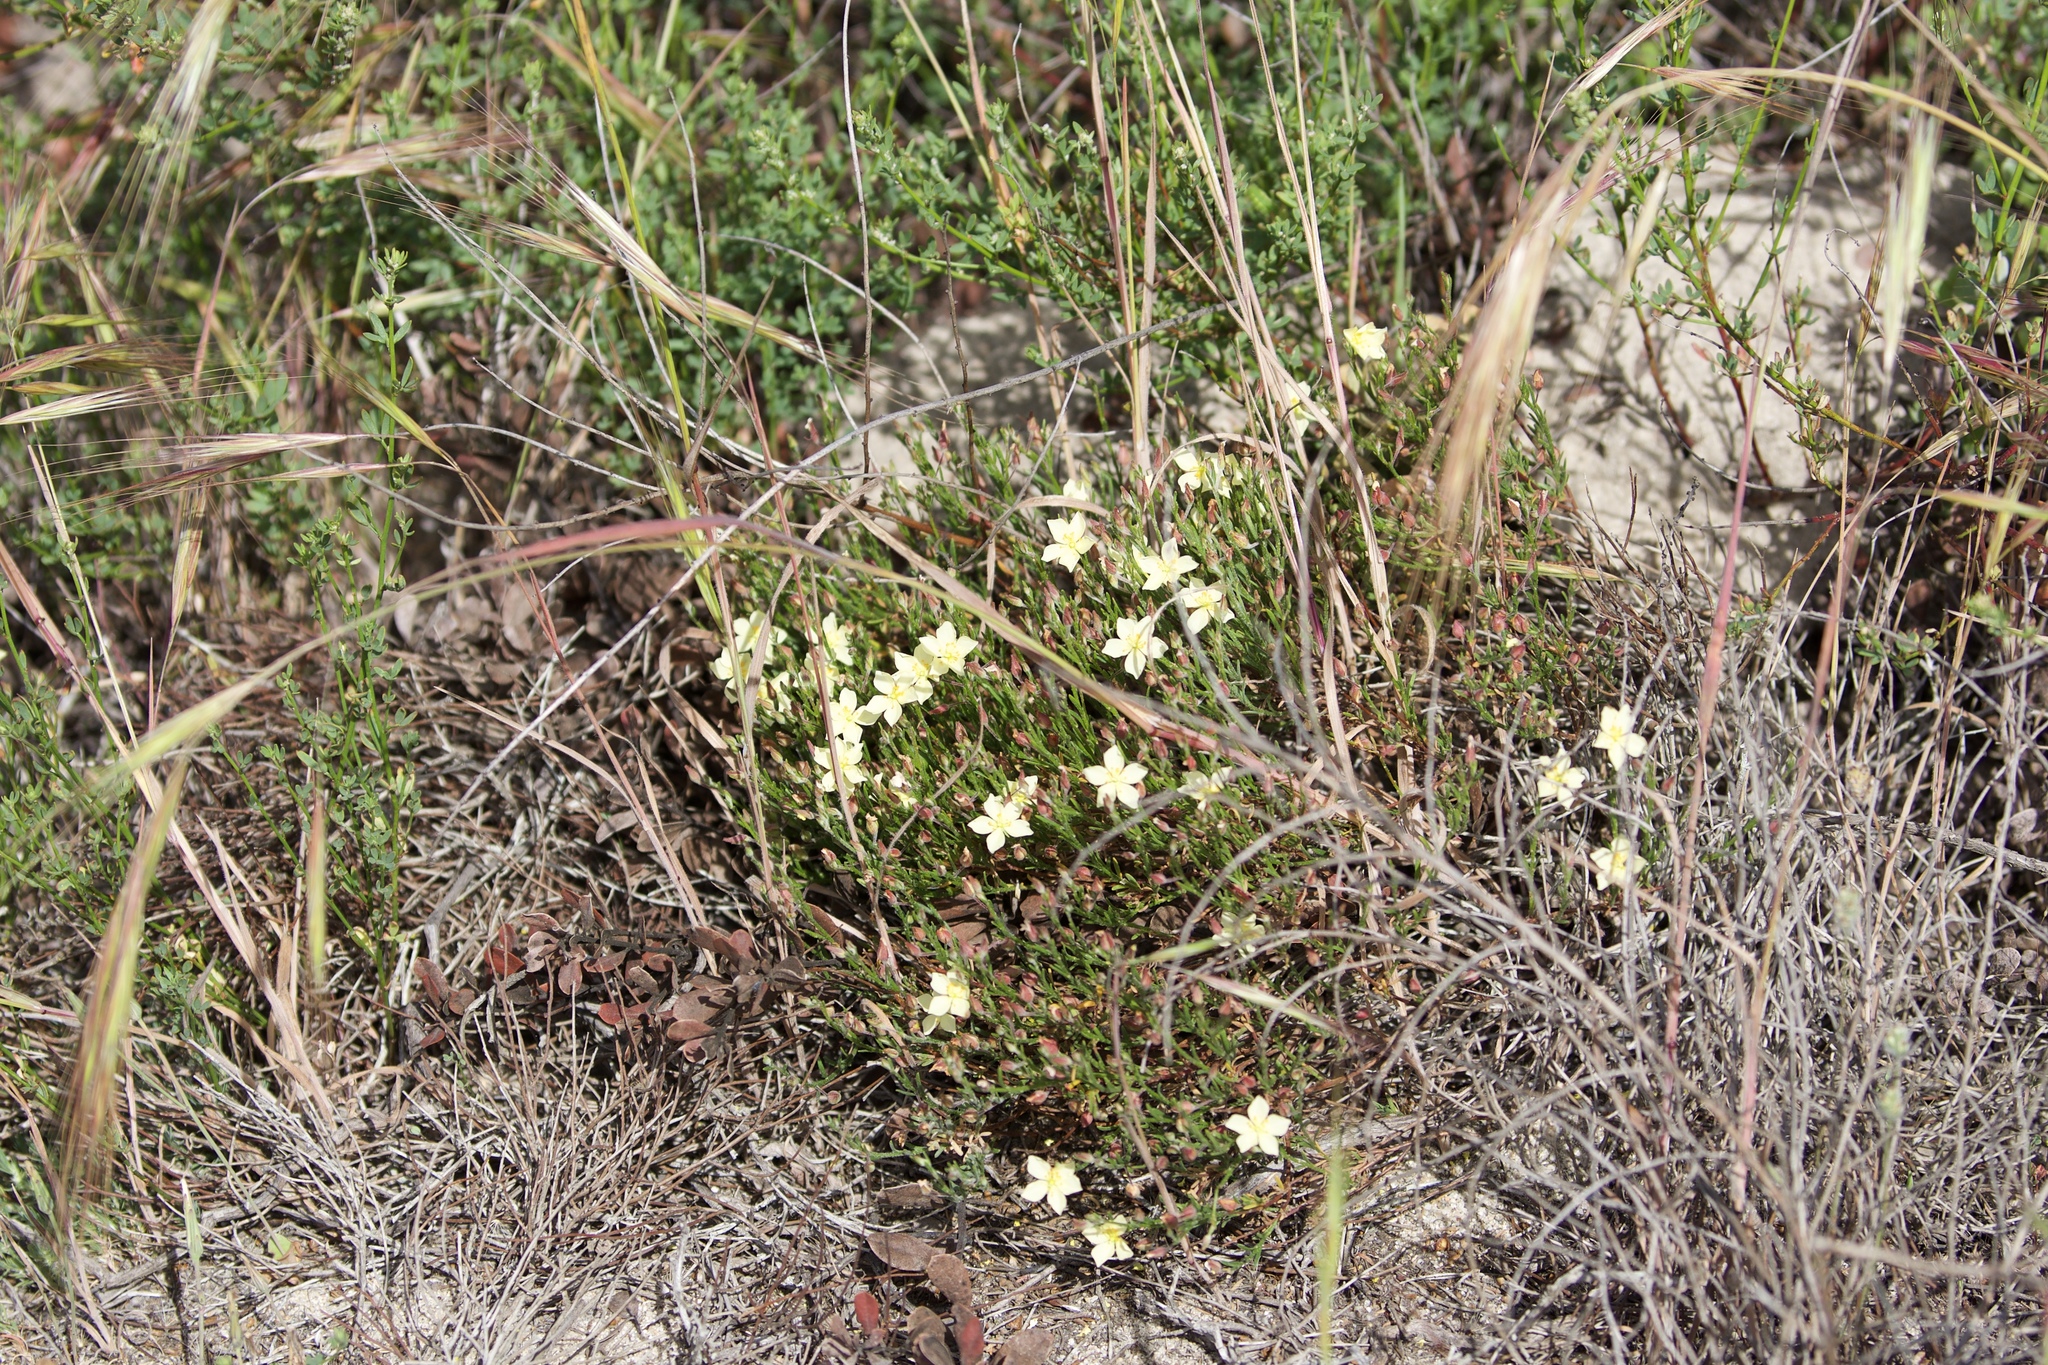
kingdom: Plantae
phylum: Tracheophyta
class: Magnoliopsida
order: Malvales
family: Cistaceae
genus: Crocanthemum
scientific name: Crocanthemum scoparium
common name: Broom-rose
